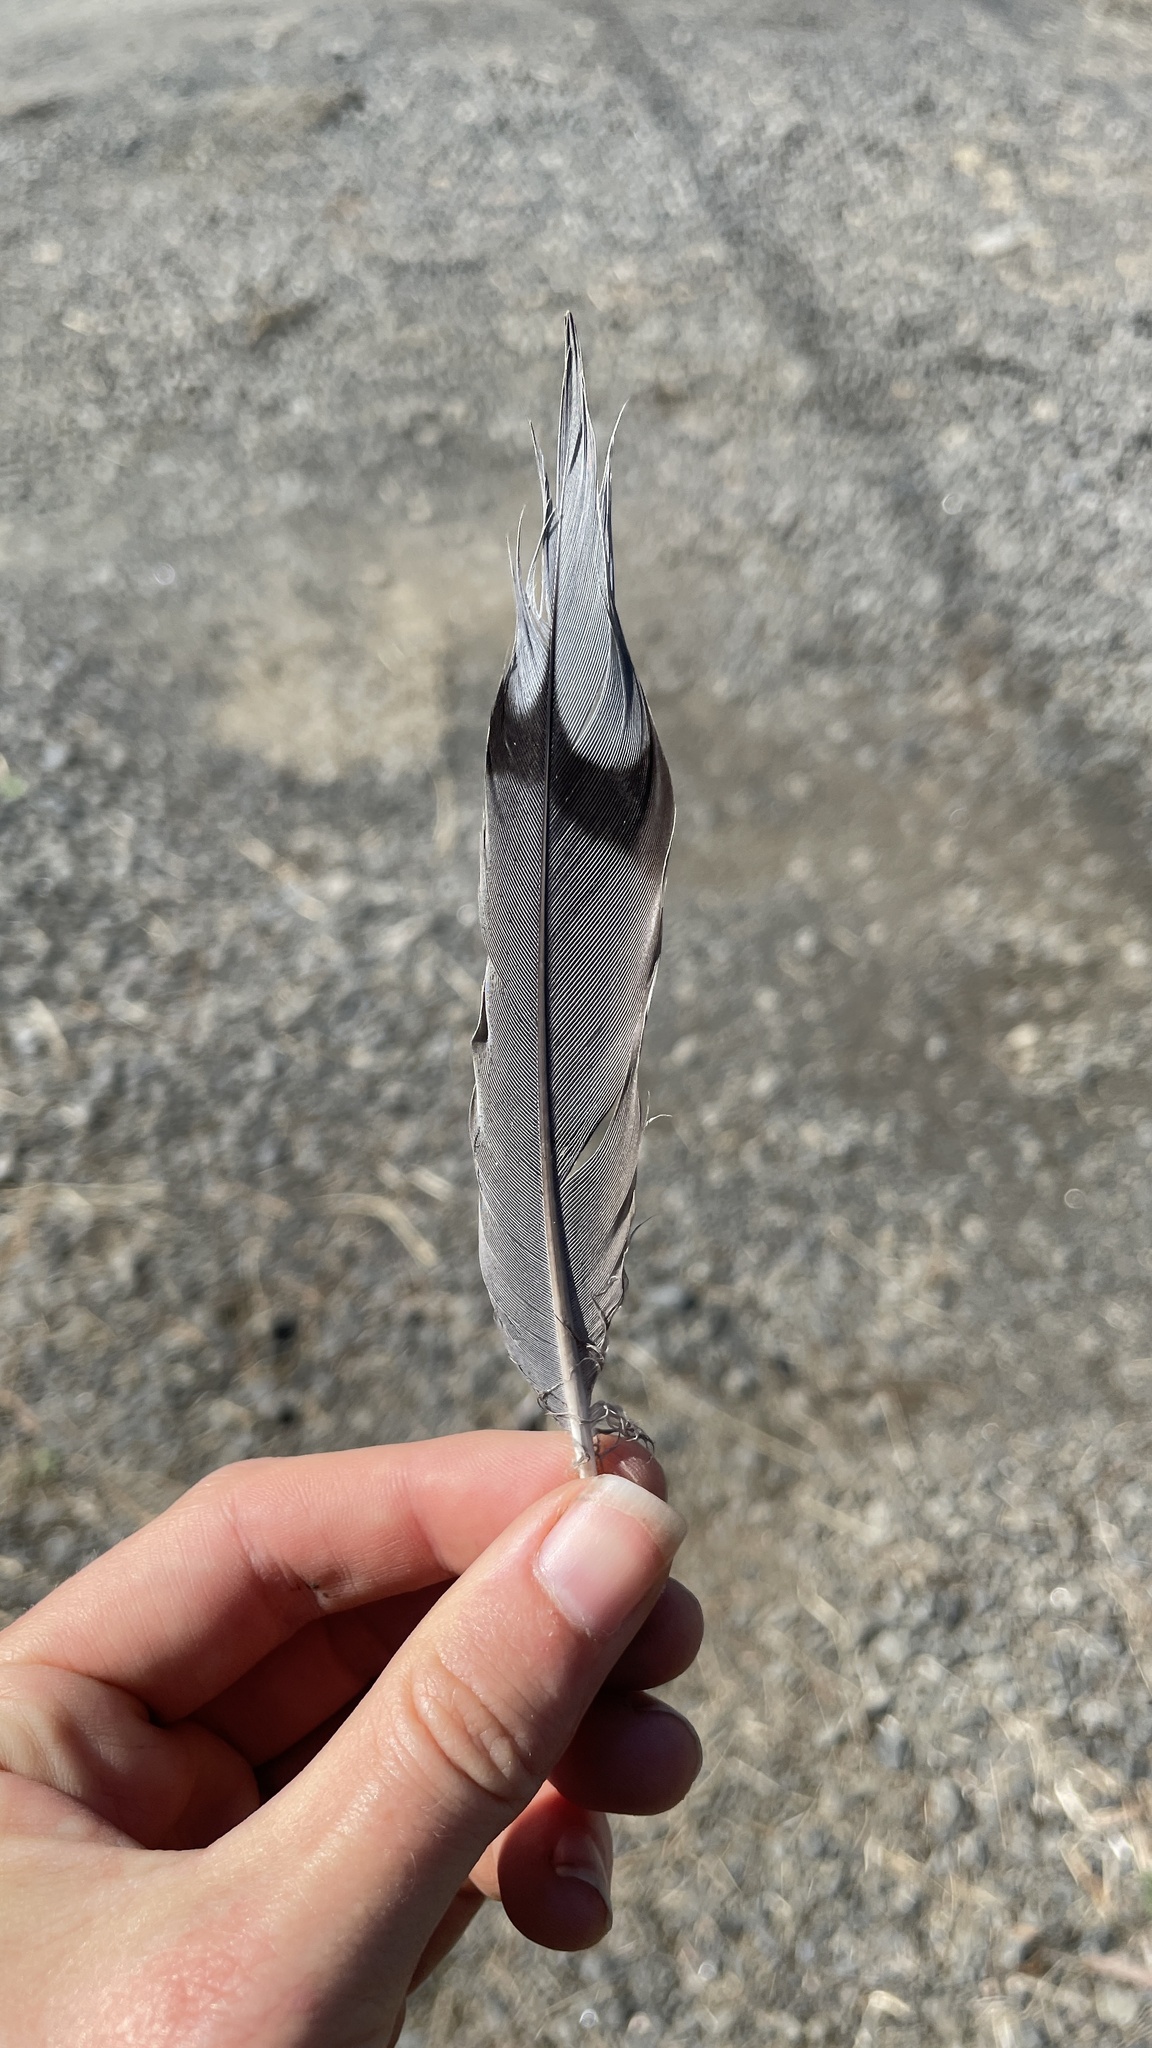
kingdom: Animalia
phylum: Chordata
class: Aves
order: Columbiformes
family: Columbidae
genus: Zenaida
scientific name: Zenaida macroura
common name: Mourning dove
